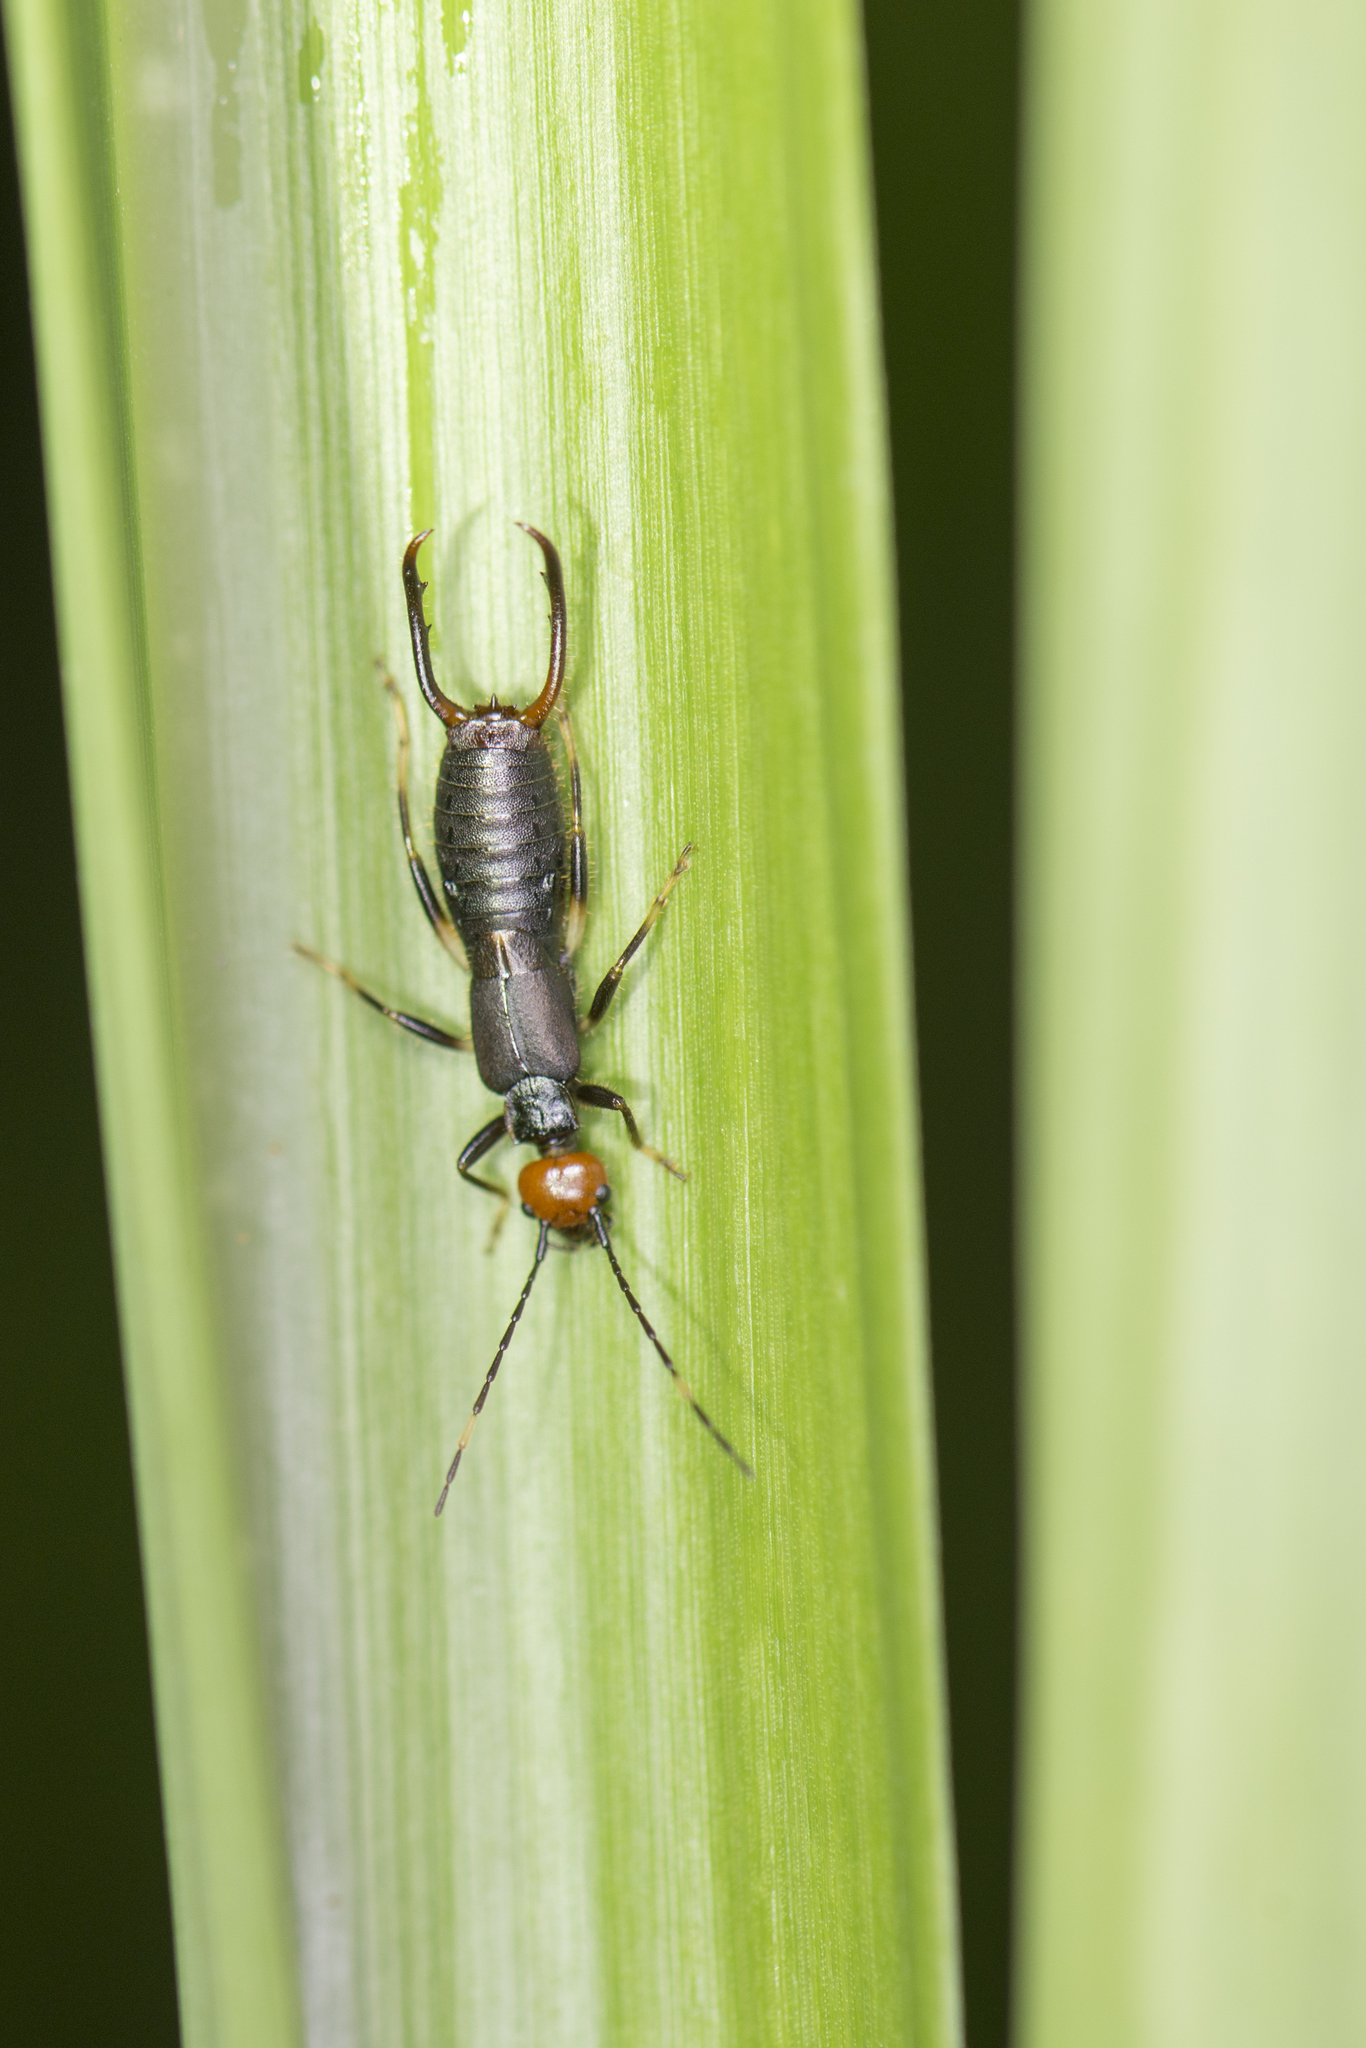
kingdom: Animalia
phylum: Arthropoda
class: Insecta
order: Dermaptera
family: Forficulidae
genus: Anechura
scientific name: Anechura crinitata
